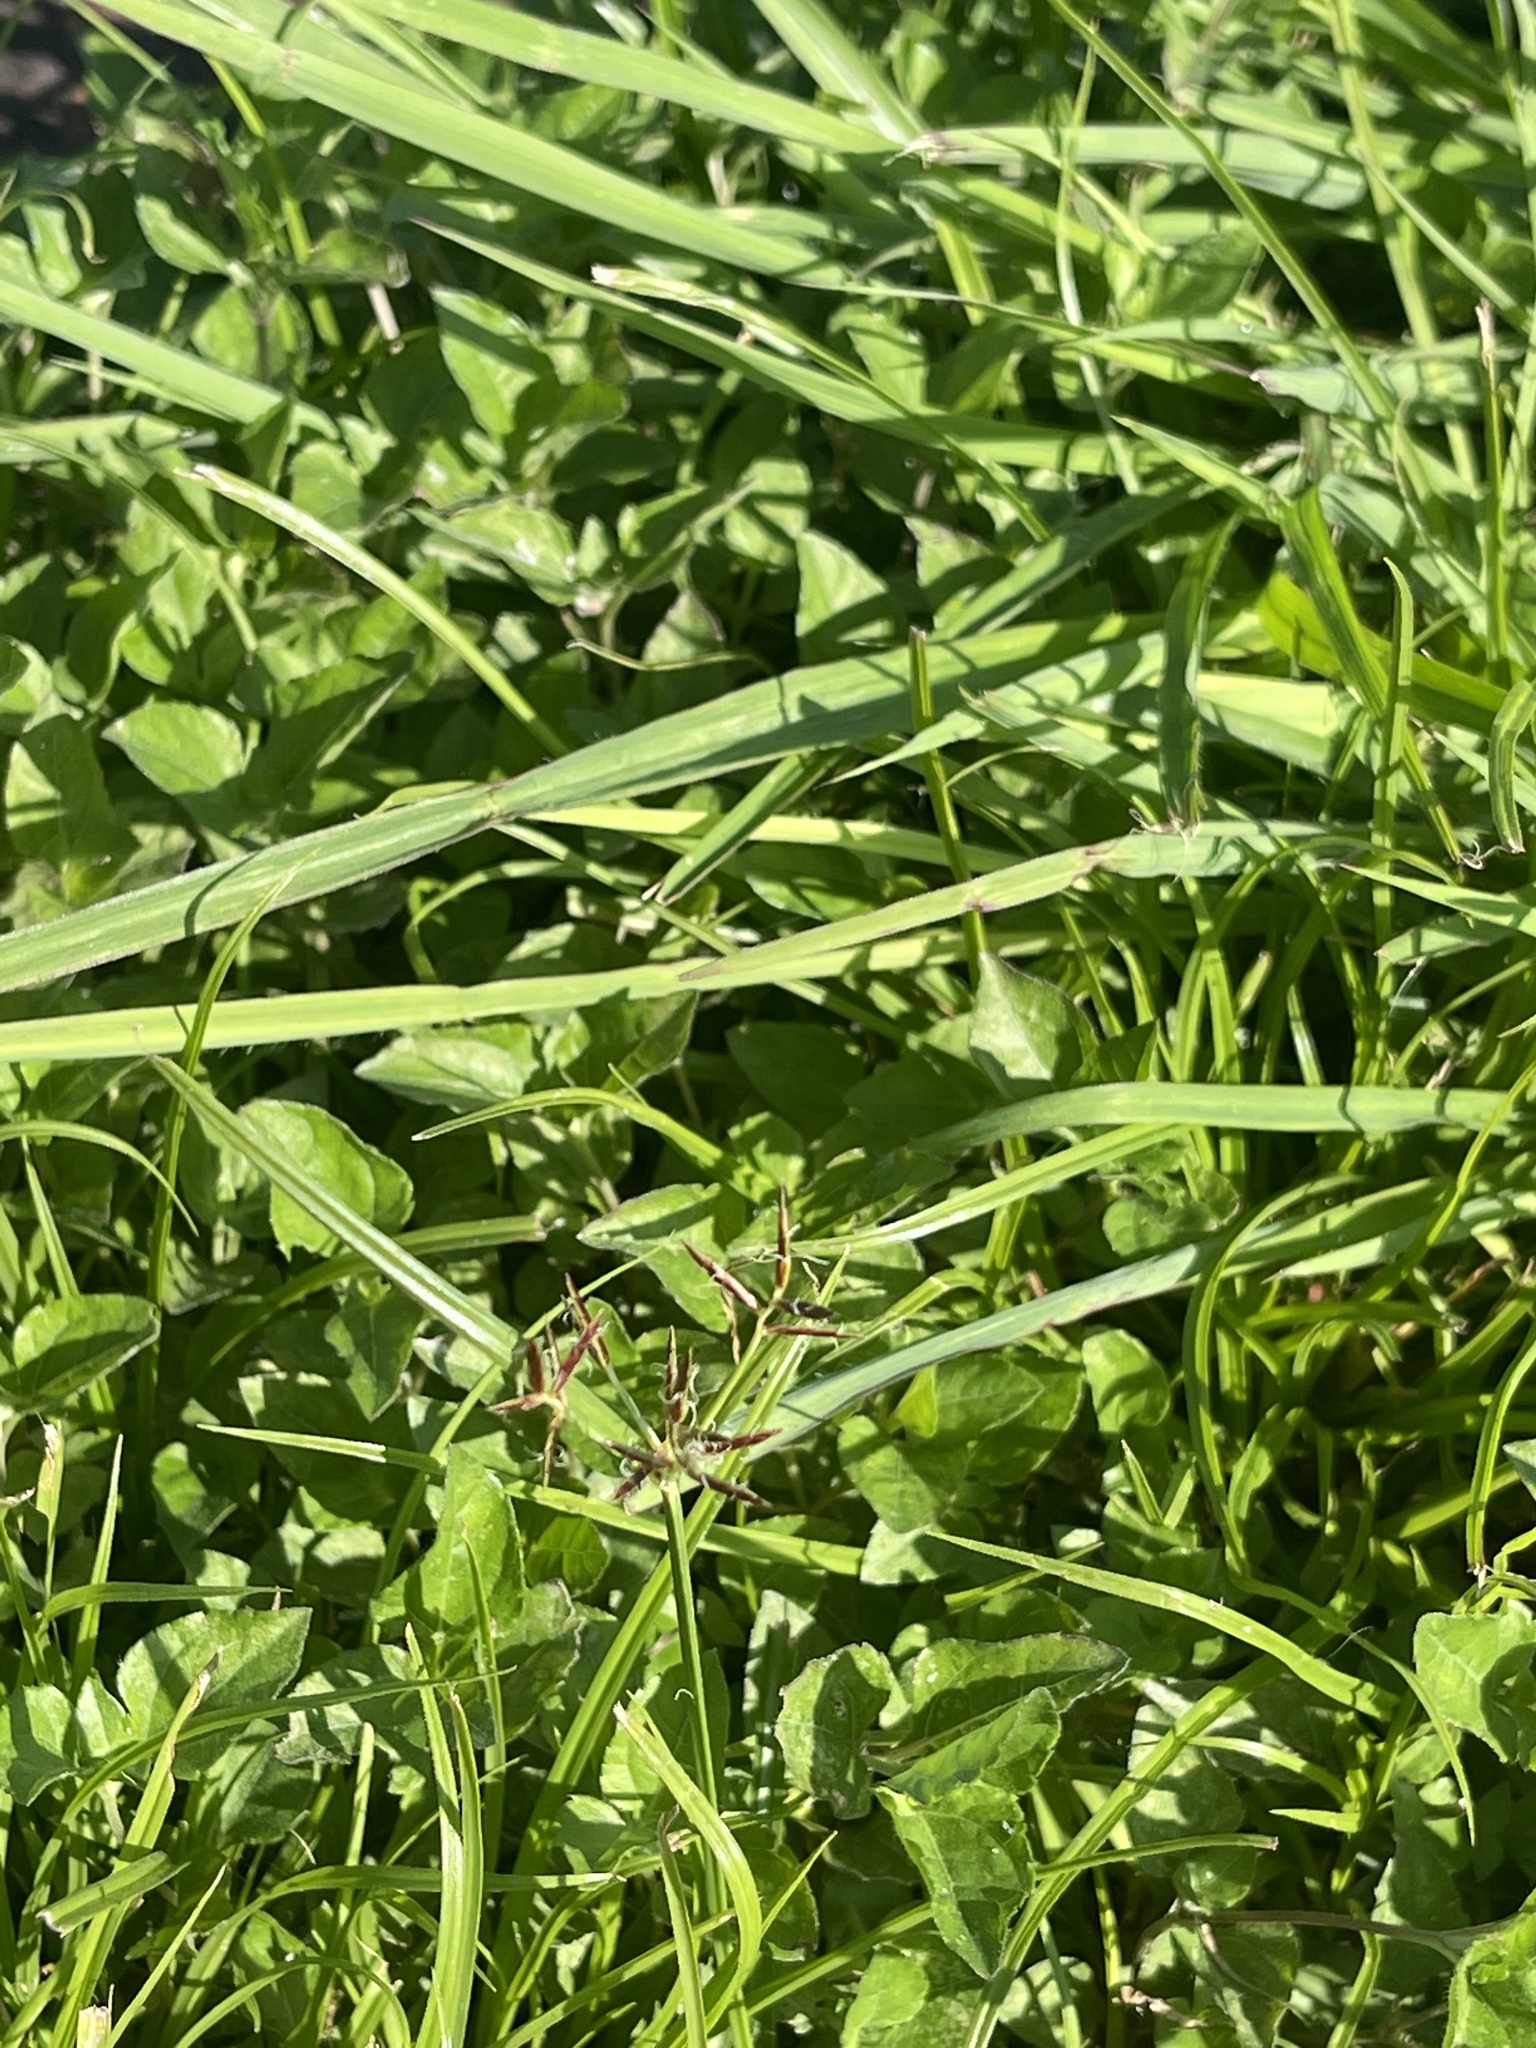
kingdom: Plantae
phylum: Tracheophyta
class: Liliopsida
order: Poales
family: Cyperaceae
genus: Cyperus
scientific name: Cyperus rotundus
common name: Nutgrass
